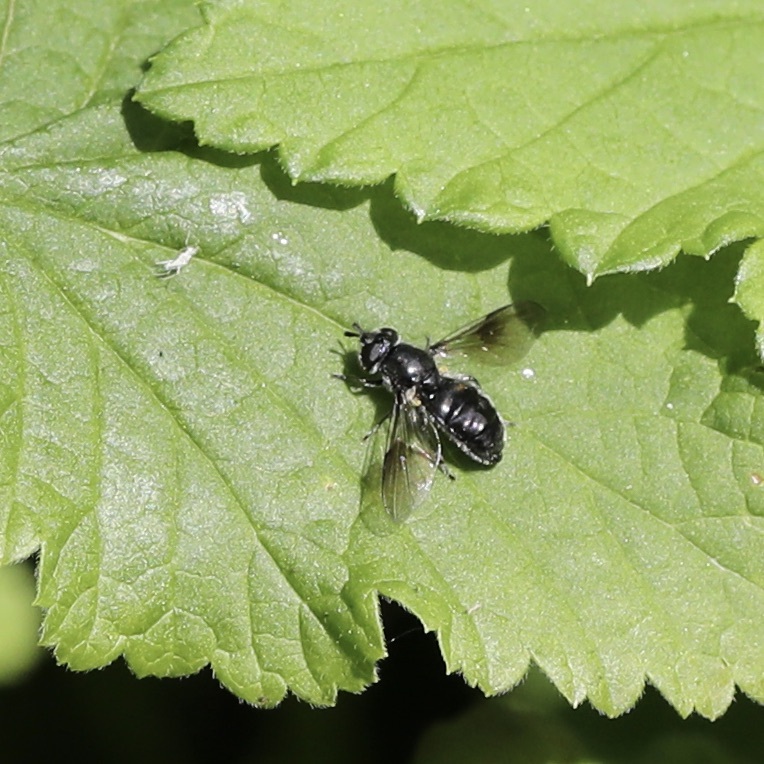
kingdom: Animalia
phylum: Arthropoda
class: Insecta
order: Diptera
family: Syrphidae
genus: Pipiza
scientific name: Pipiza
